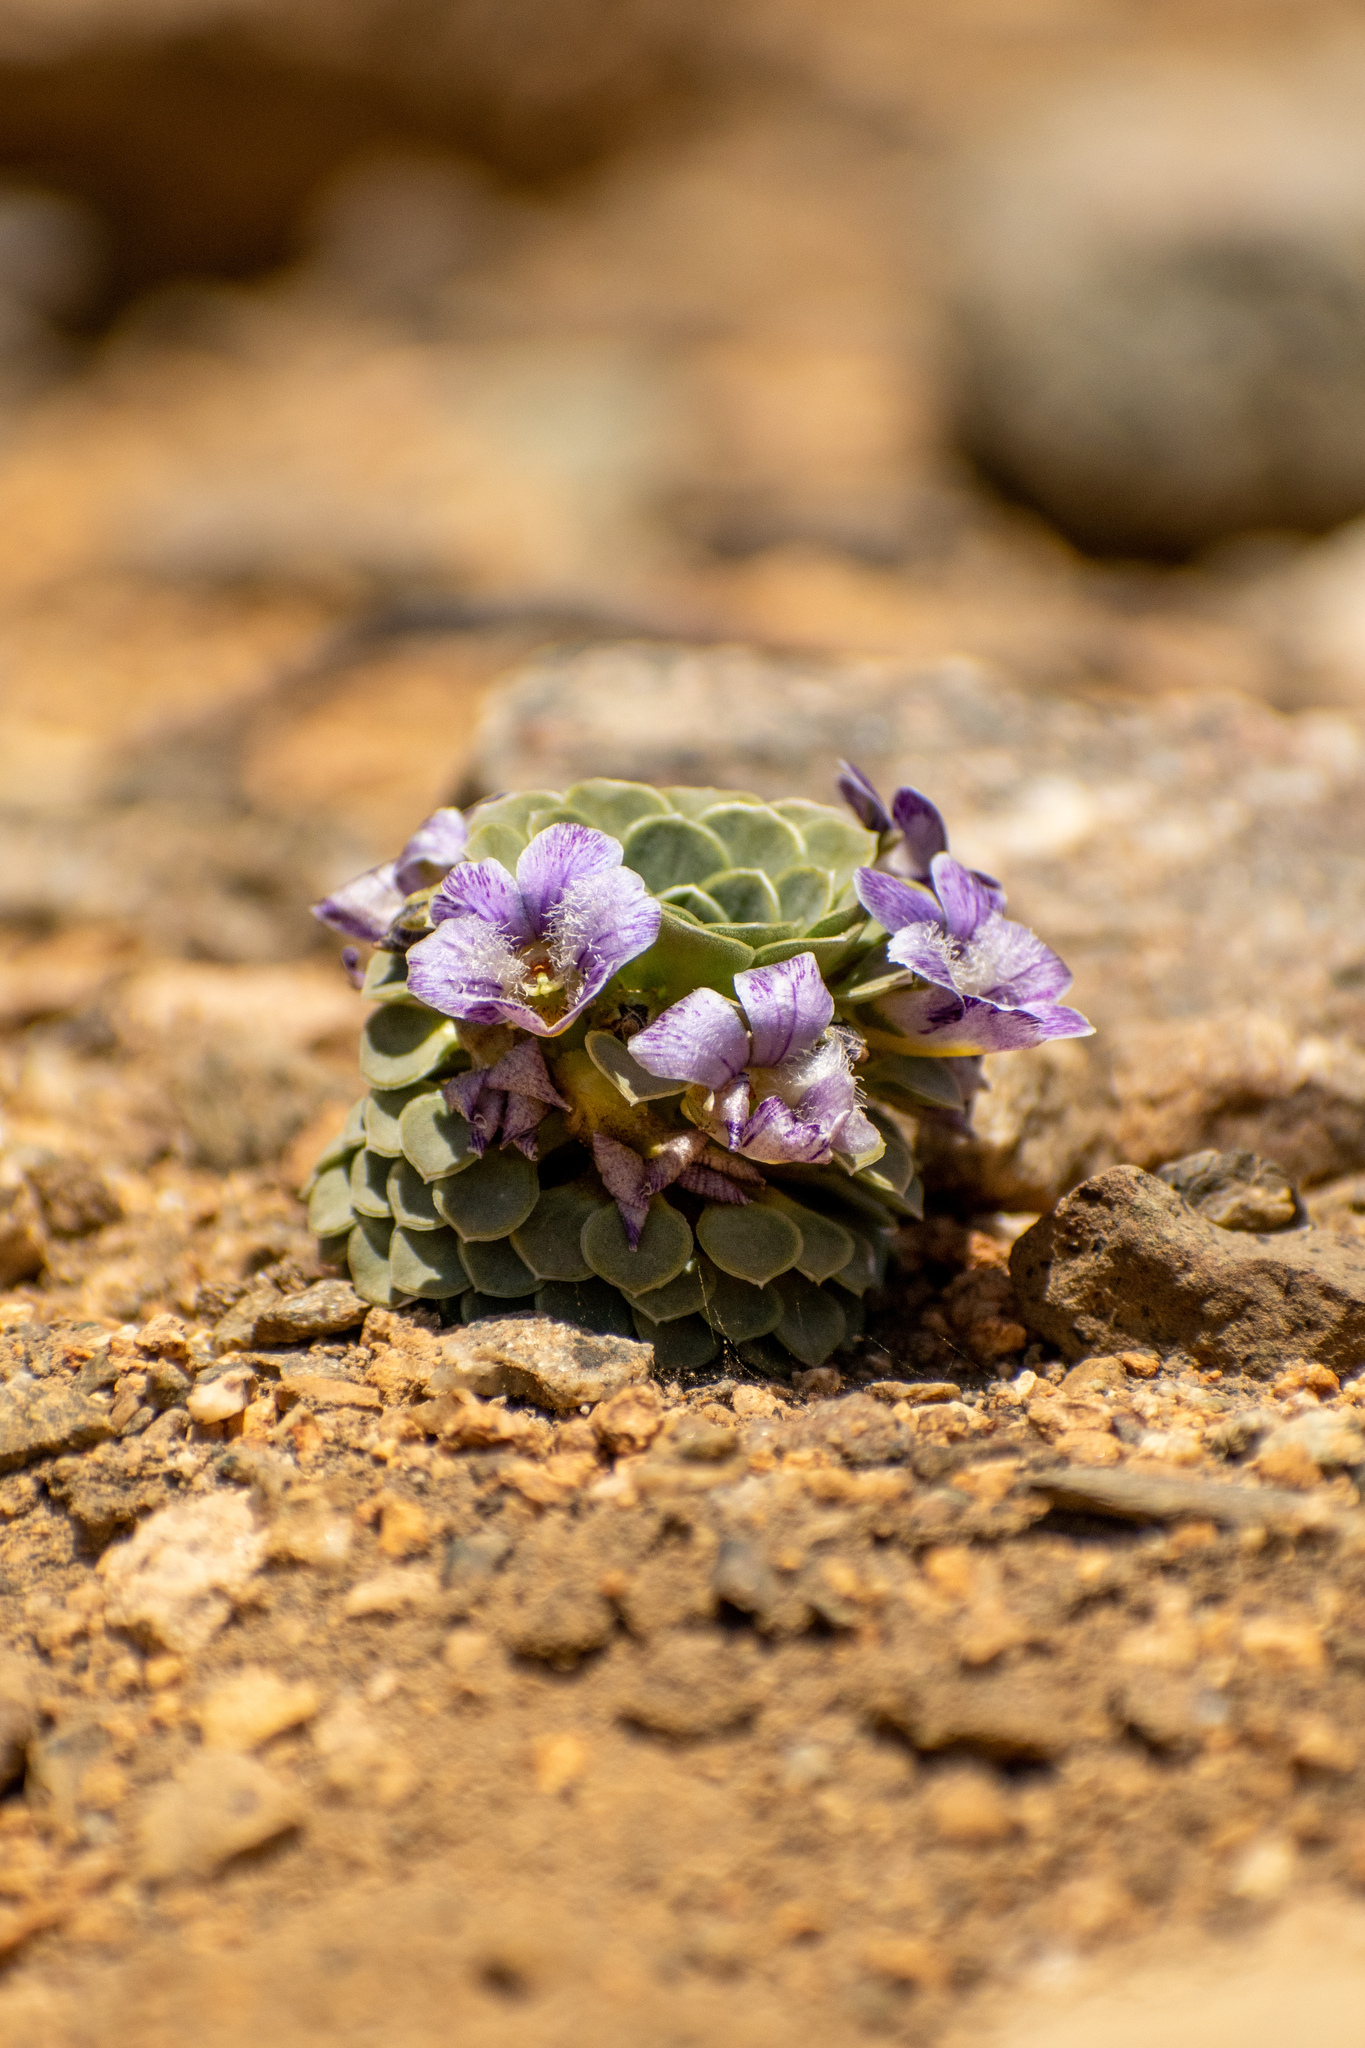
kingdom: Plantae
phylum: Tracheophyta
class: Magnoliopsida
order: Malpighiales
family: Violaceae
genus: Viola
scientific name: Viola petraea
